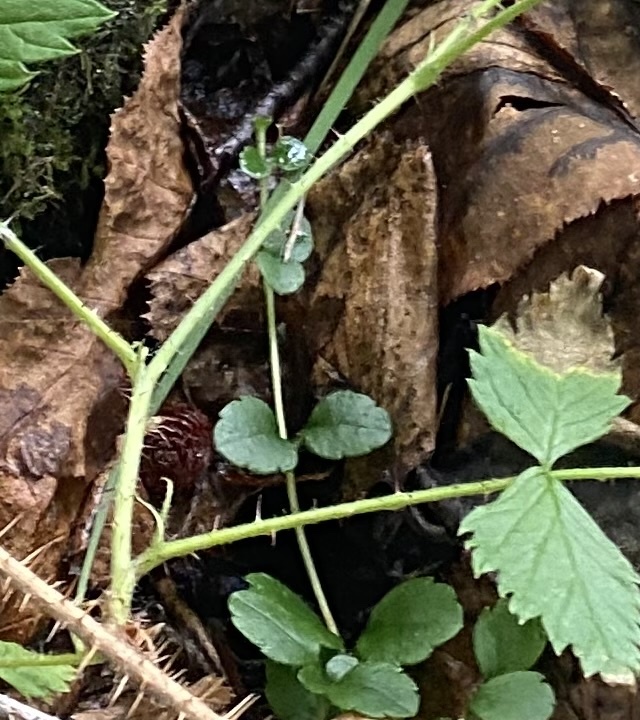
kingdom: Plantae
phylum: Tracheophyta
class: Magnoliopsida
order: Dipsacales
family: Caprifoliaceae
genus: Linnaea
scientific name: Linnaea borealis
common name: Twinflower
